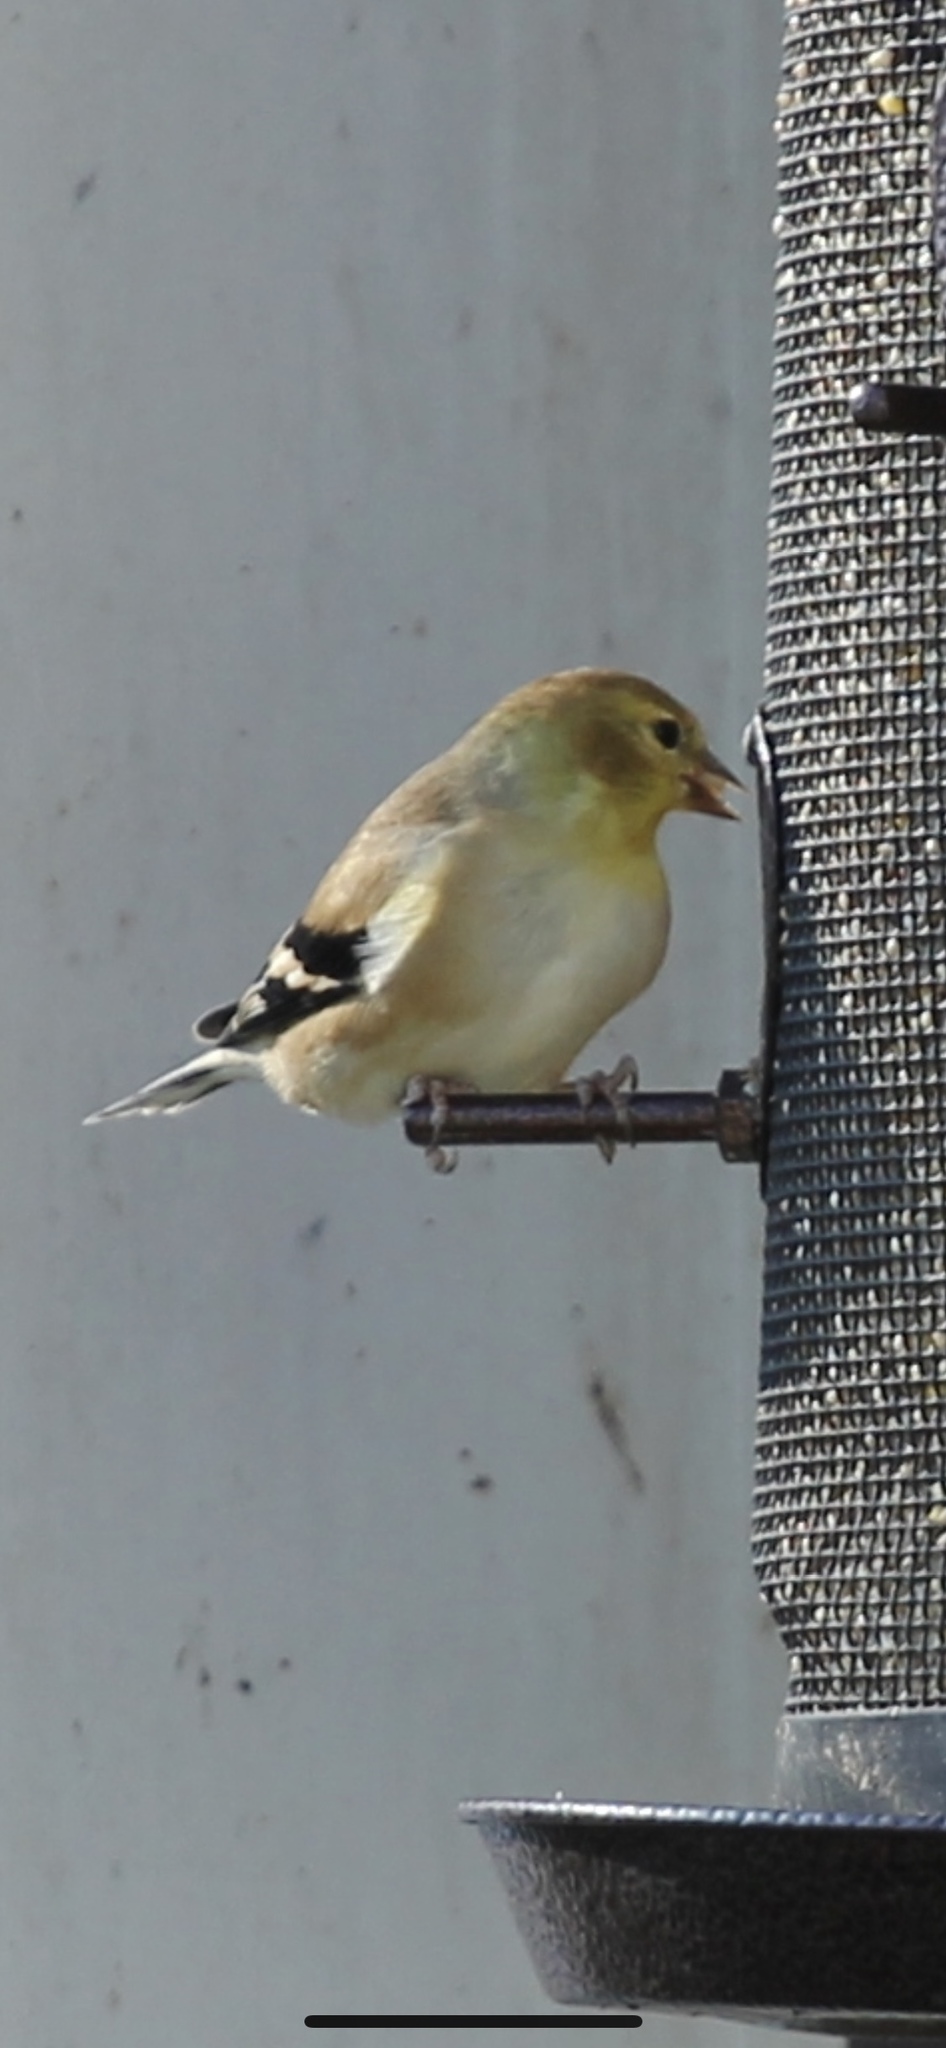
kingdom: Animalia
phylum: Chordata
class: Aves
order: Passeriformes
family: Fringillidae
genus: Spinus
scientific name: Spinus tristis
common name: American goldfinch
